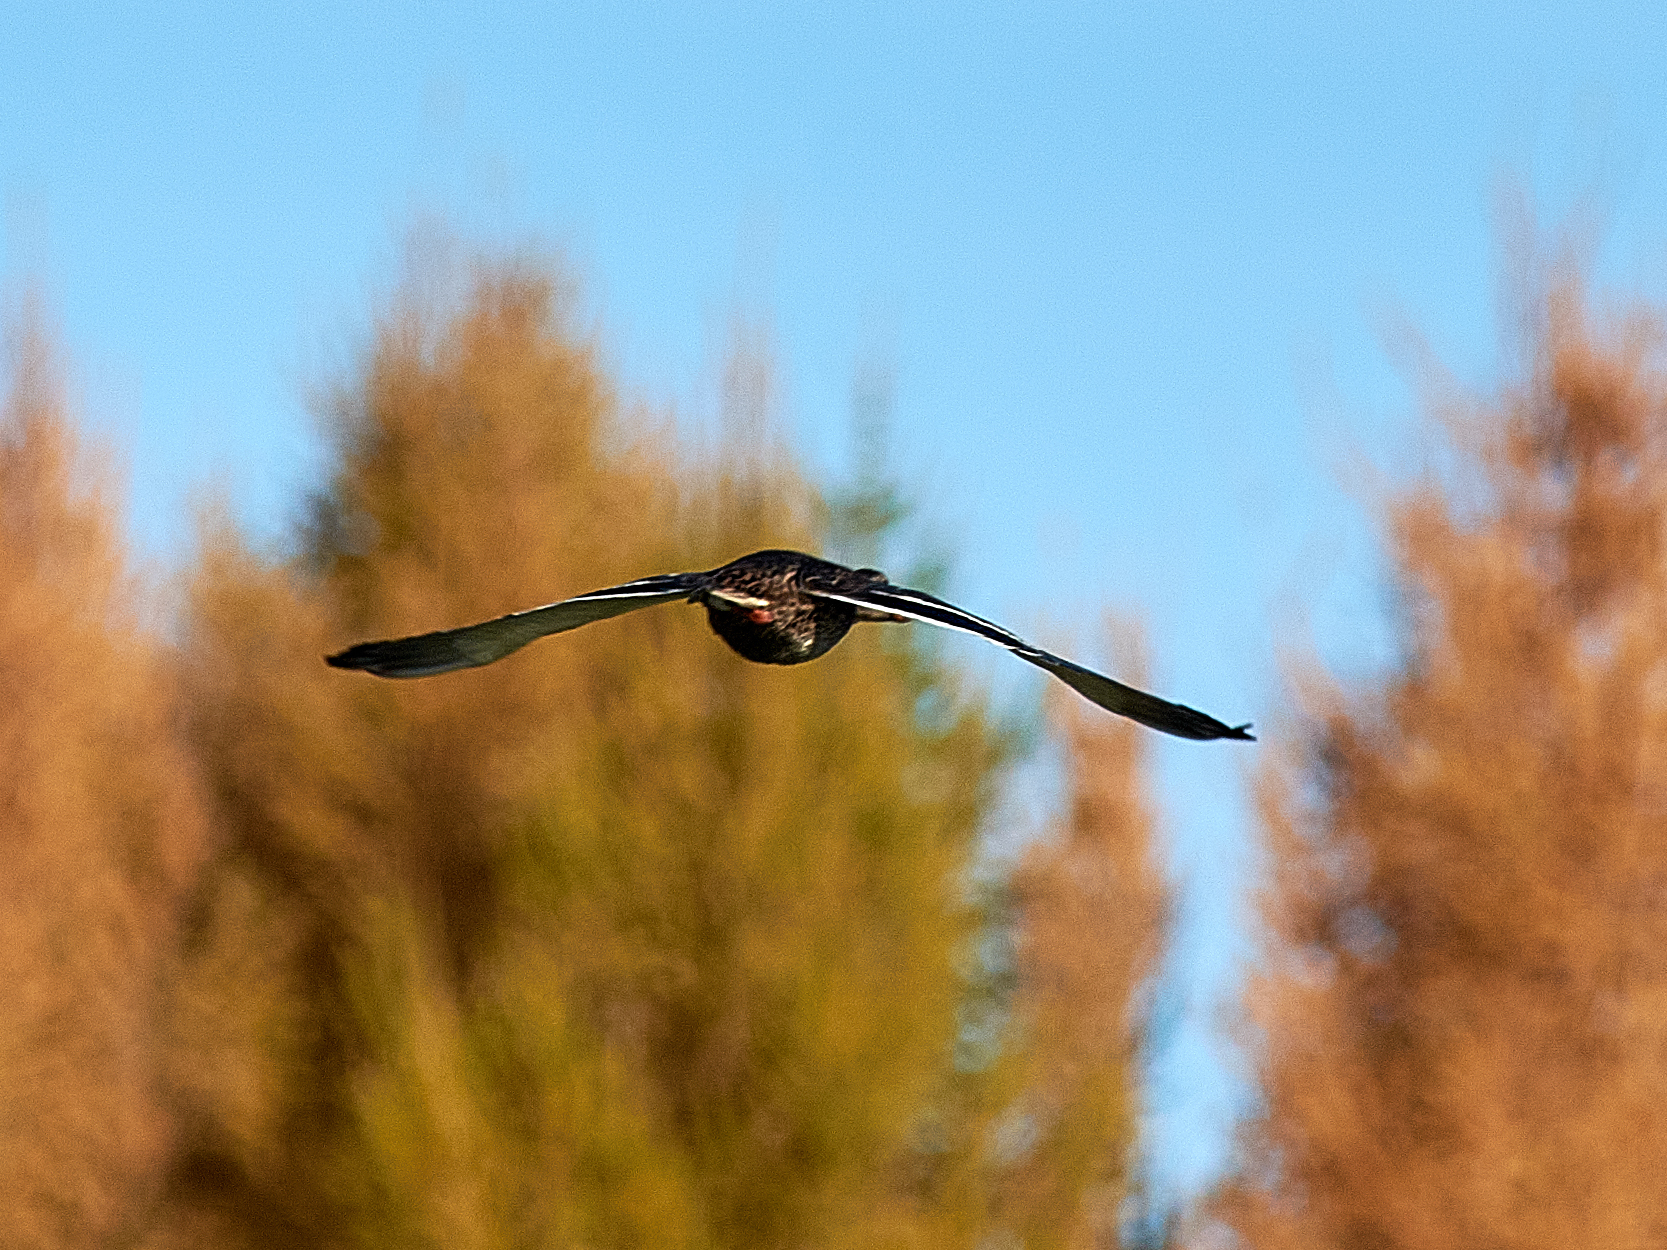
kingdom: Animalia
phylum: Chordata
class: Aves
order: Anseriformes
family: Anatidae
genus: Anas
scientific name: Anas platyrhynchos
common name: Mallard
